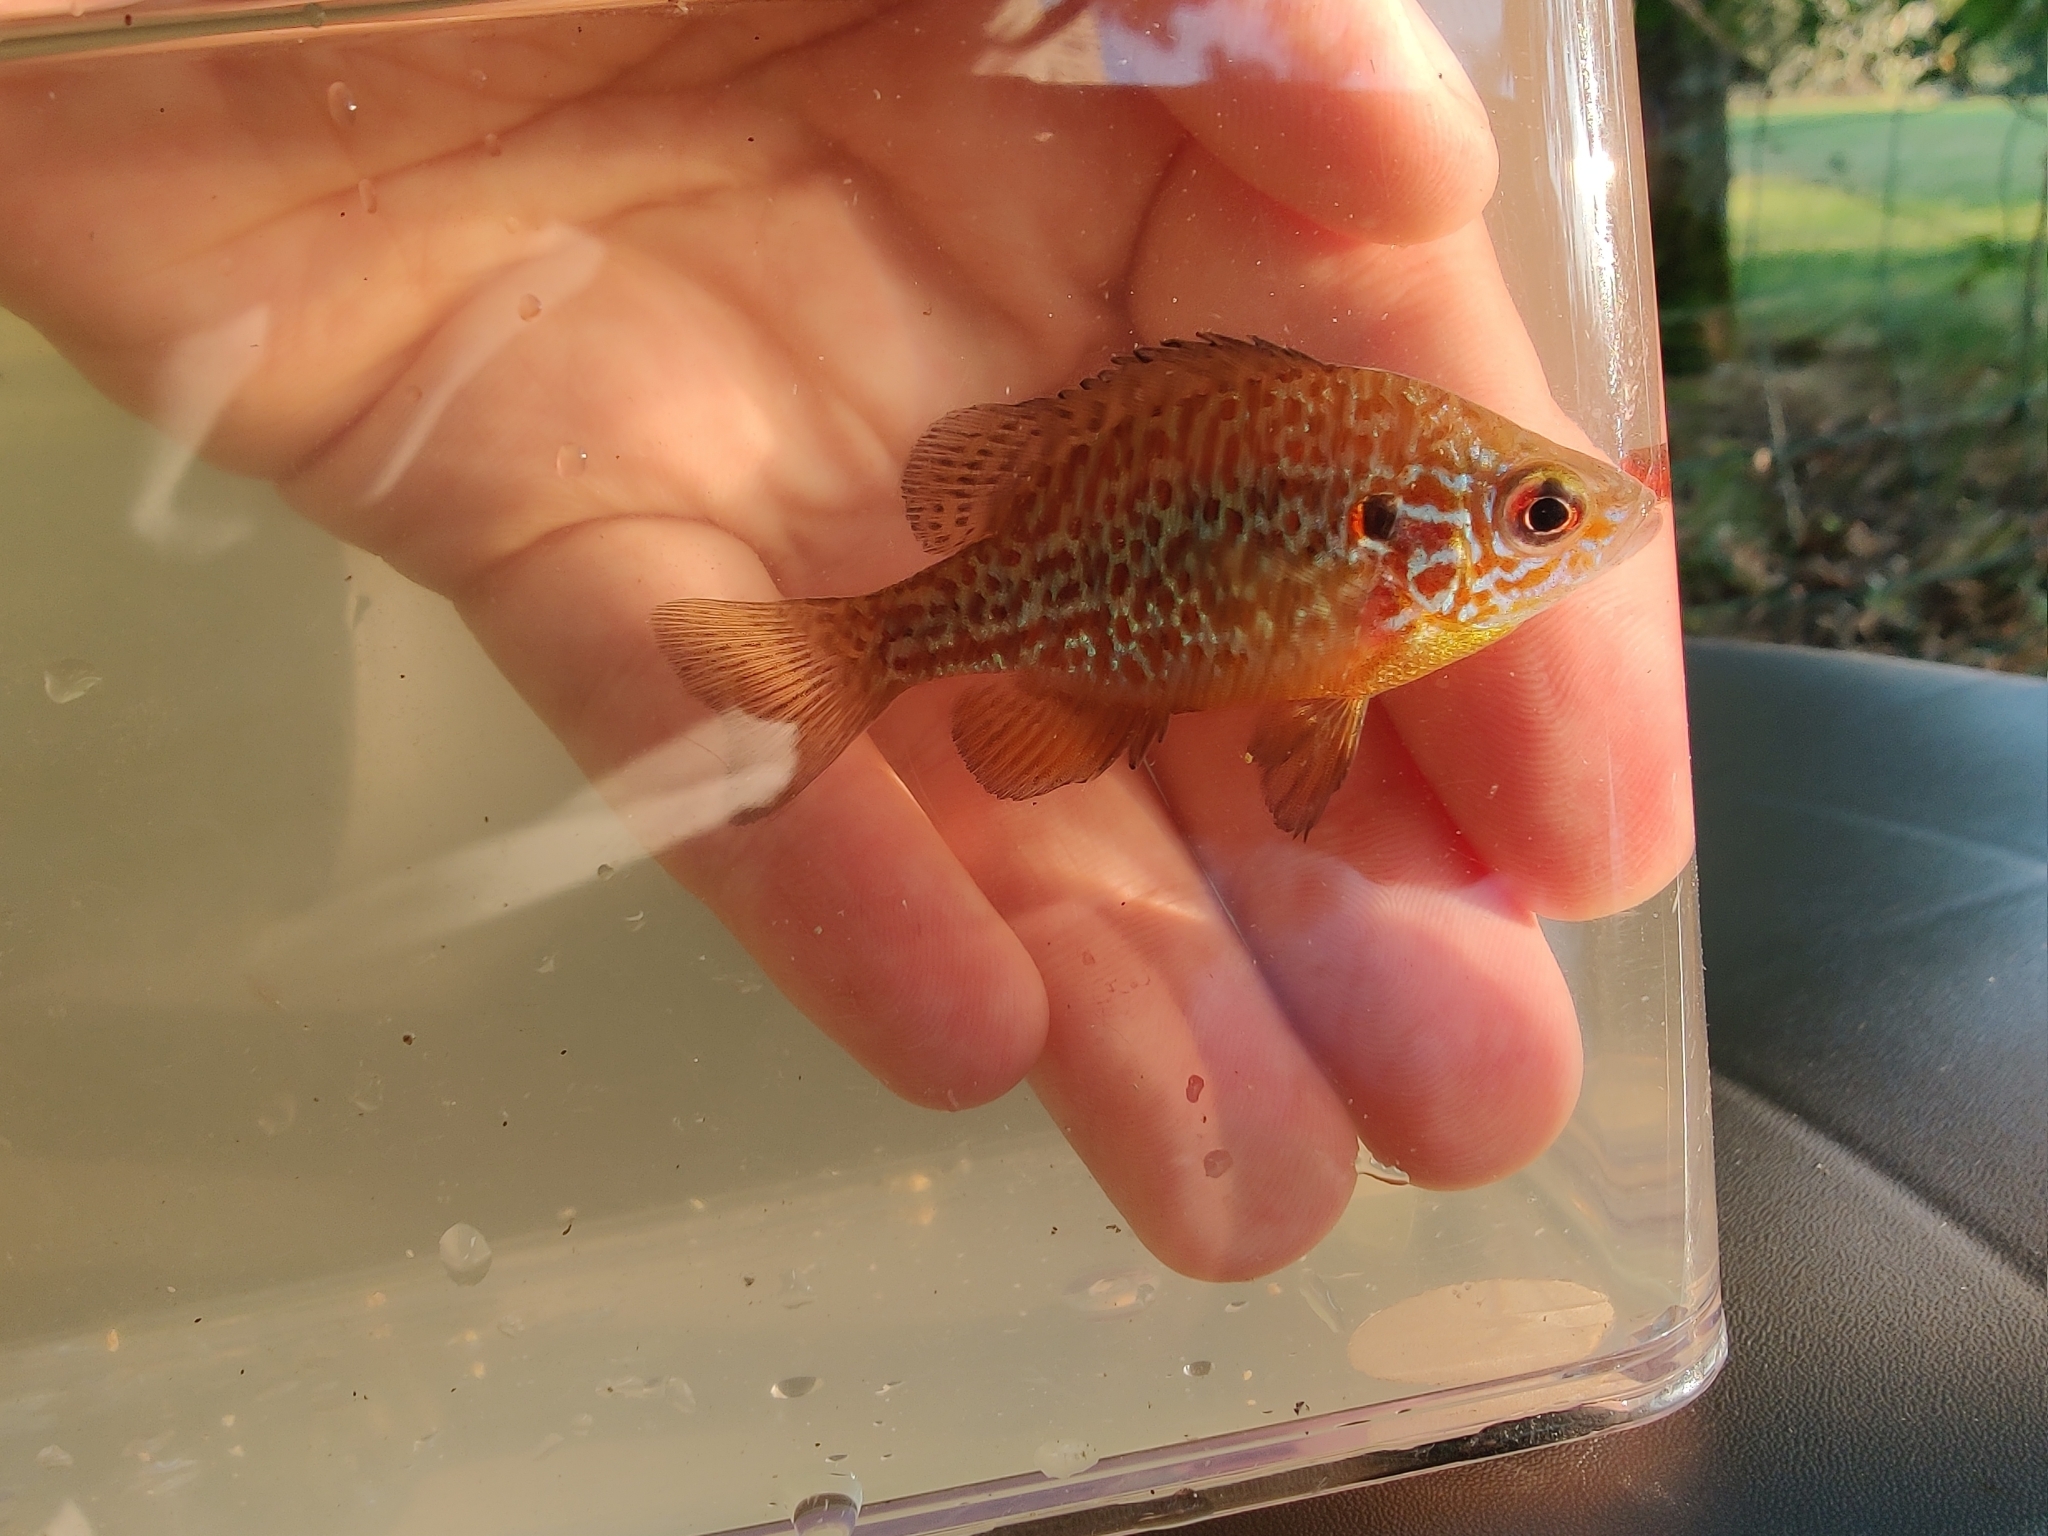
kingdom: Animalia
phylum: Chordata
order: Perciformes
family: Centrarchidae
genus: Lepomis
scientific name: Lepomis gibbosus
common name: Pumpkinseed
